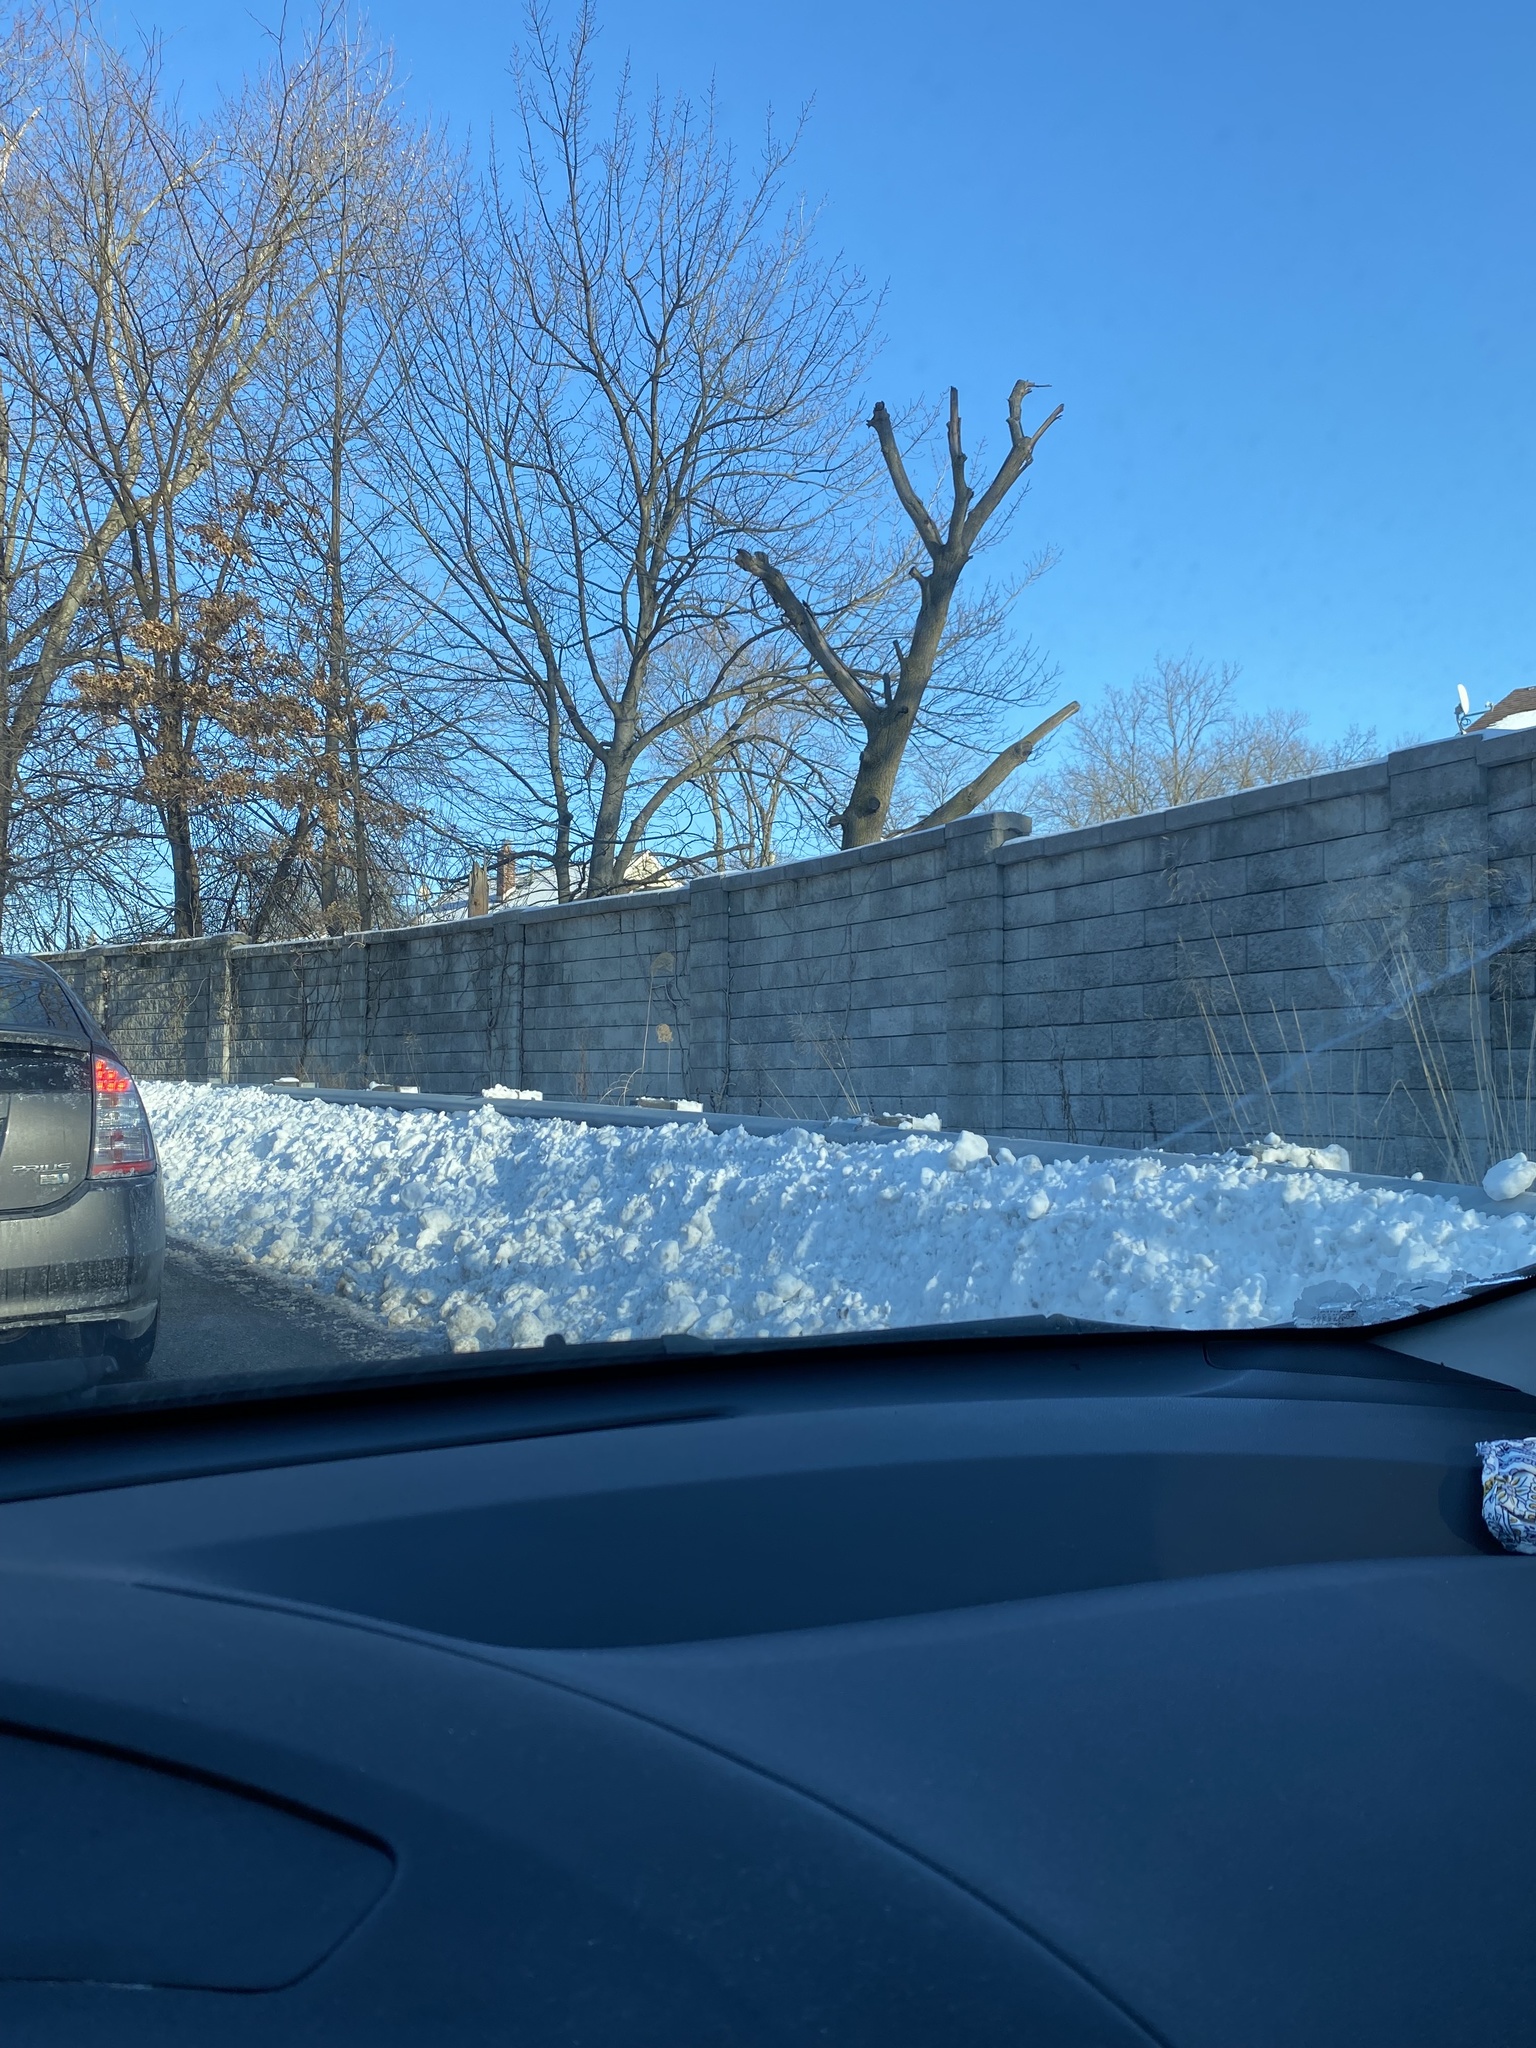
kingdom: Plantae
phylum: Tracheophyta
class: Liliopsida
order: Poales
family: Poaceae
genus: Tridens
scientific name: Tridens flavus
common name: Purpletop
